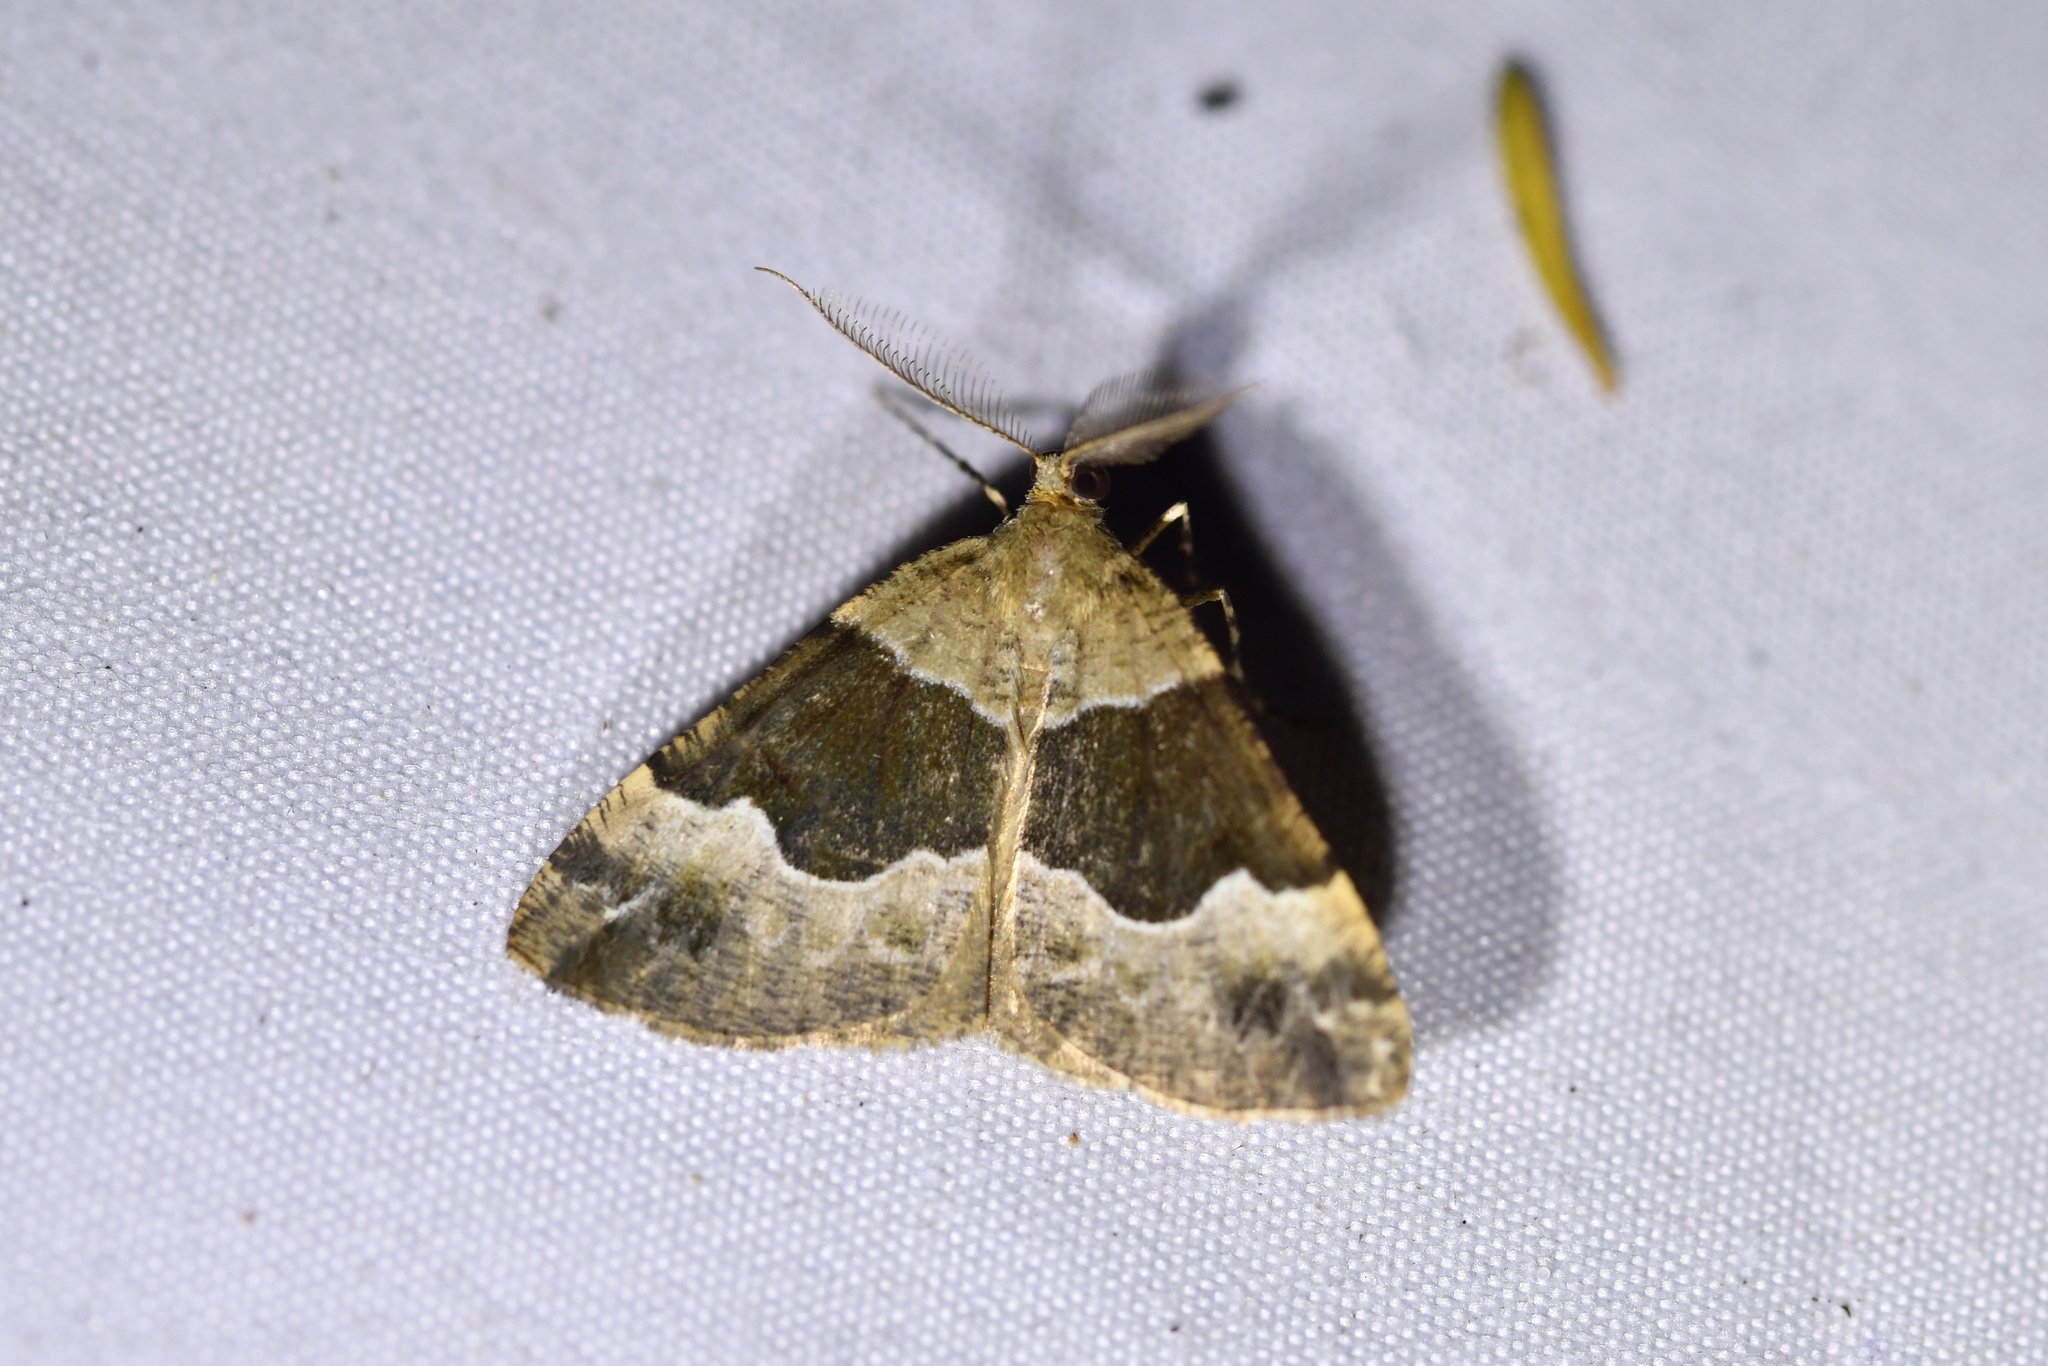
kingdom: Animalia
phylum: Arthropoda
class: Insecta
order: Lepidoptera
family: Geometridae
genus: Pseudocoremia
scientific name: Pseudocoremia
